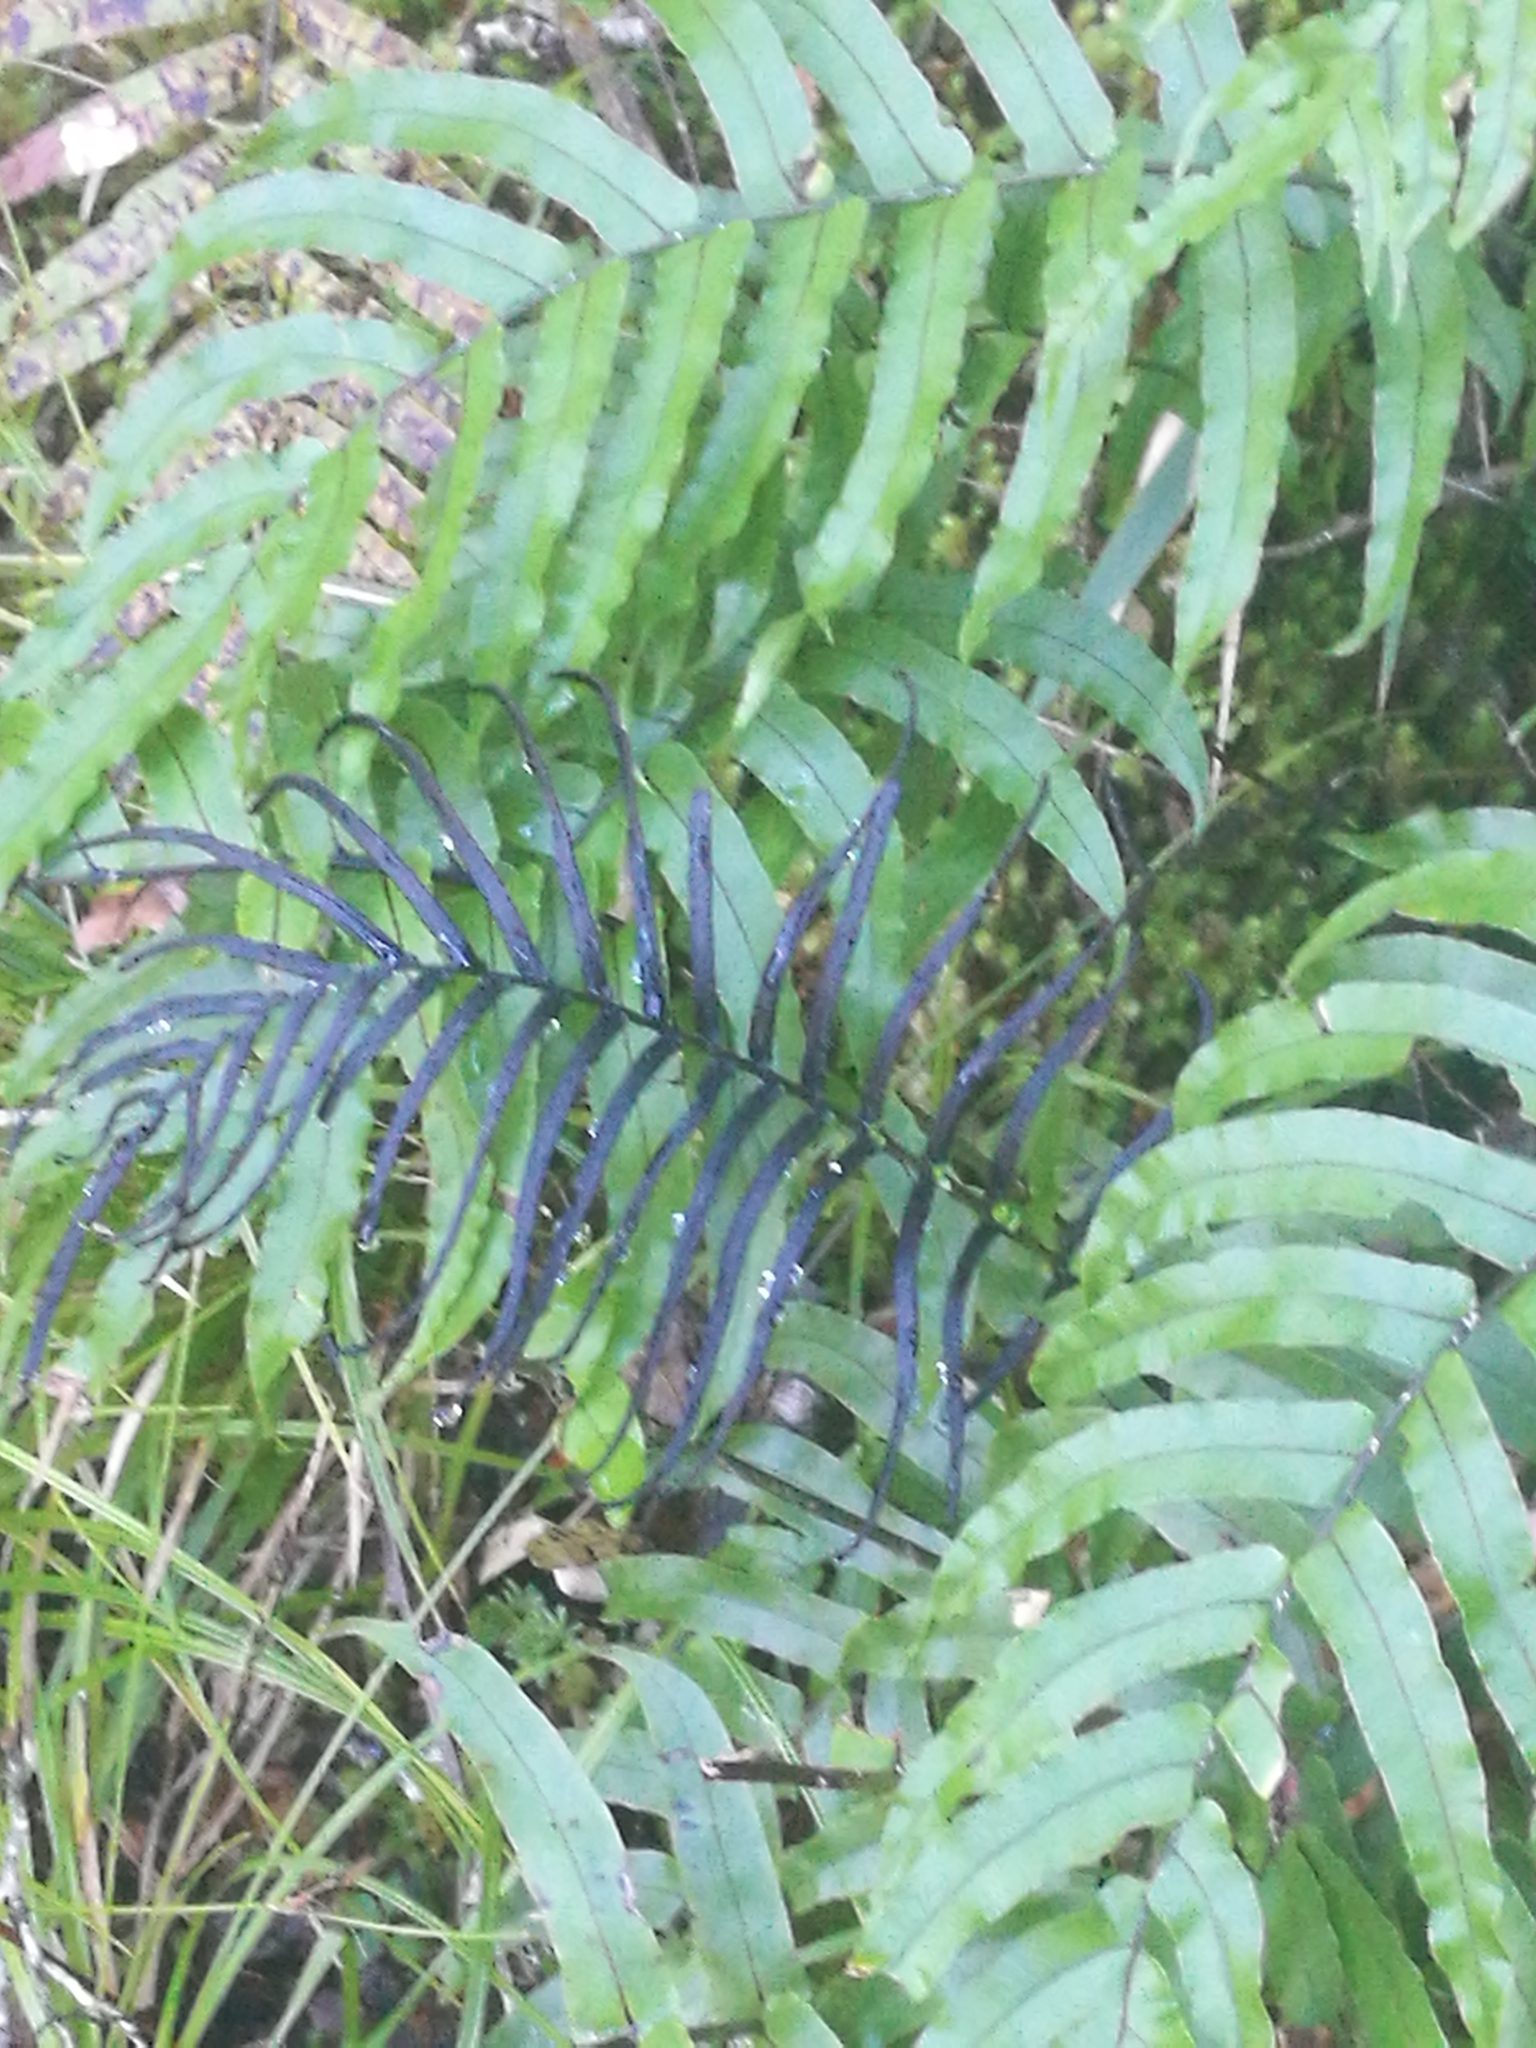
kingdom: Plantae
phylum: Tracheophyta
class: Polypodiopsida
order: Polypodiales
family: Blechnaceae
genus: Parablechnum
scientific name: Parablechnum novae-zelandiae
